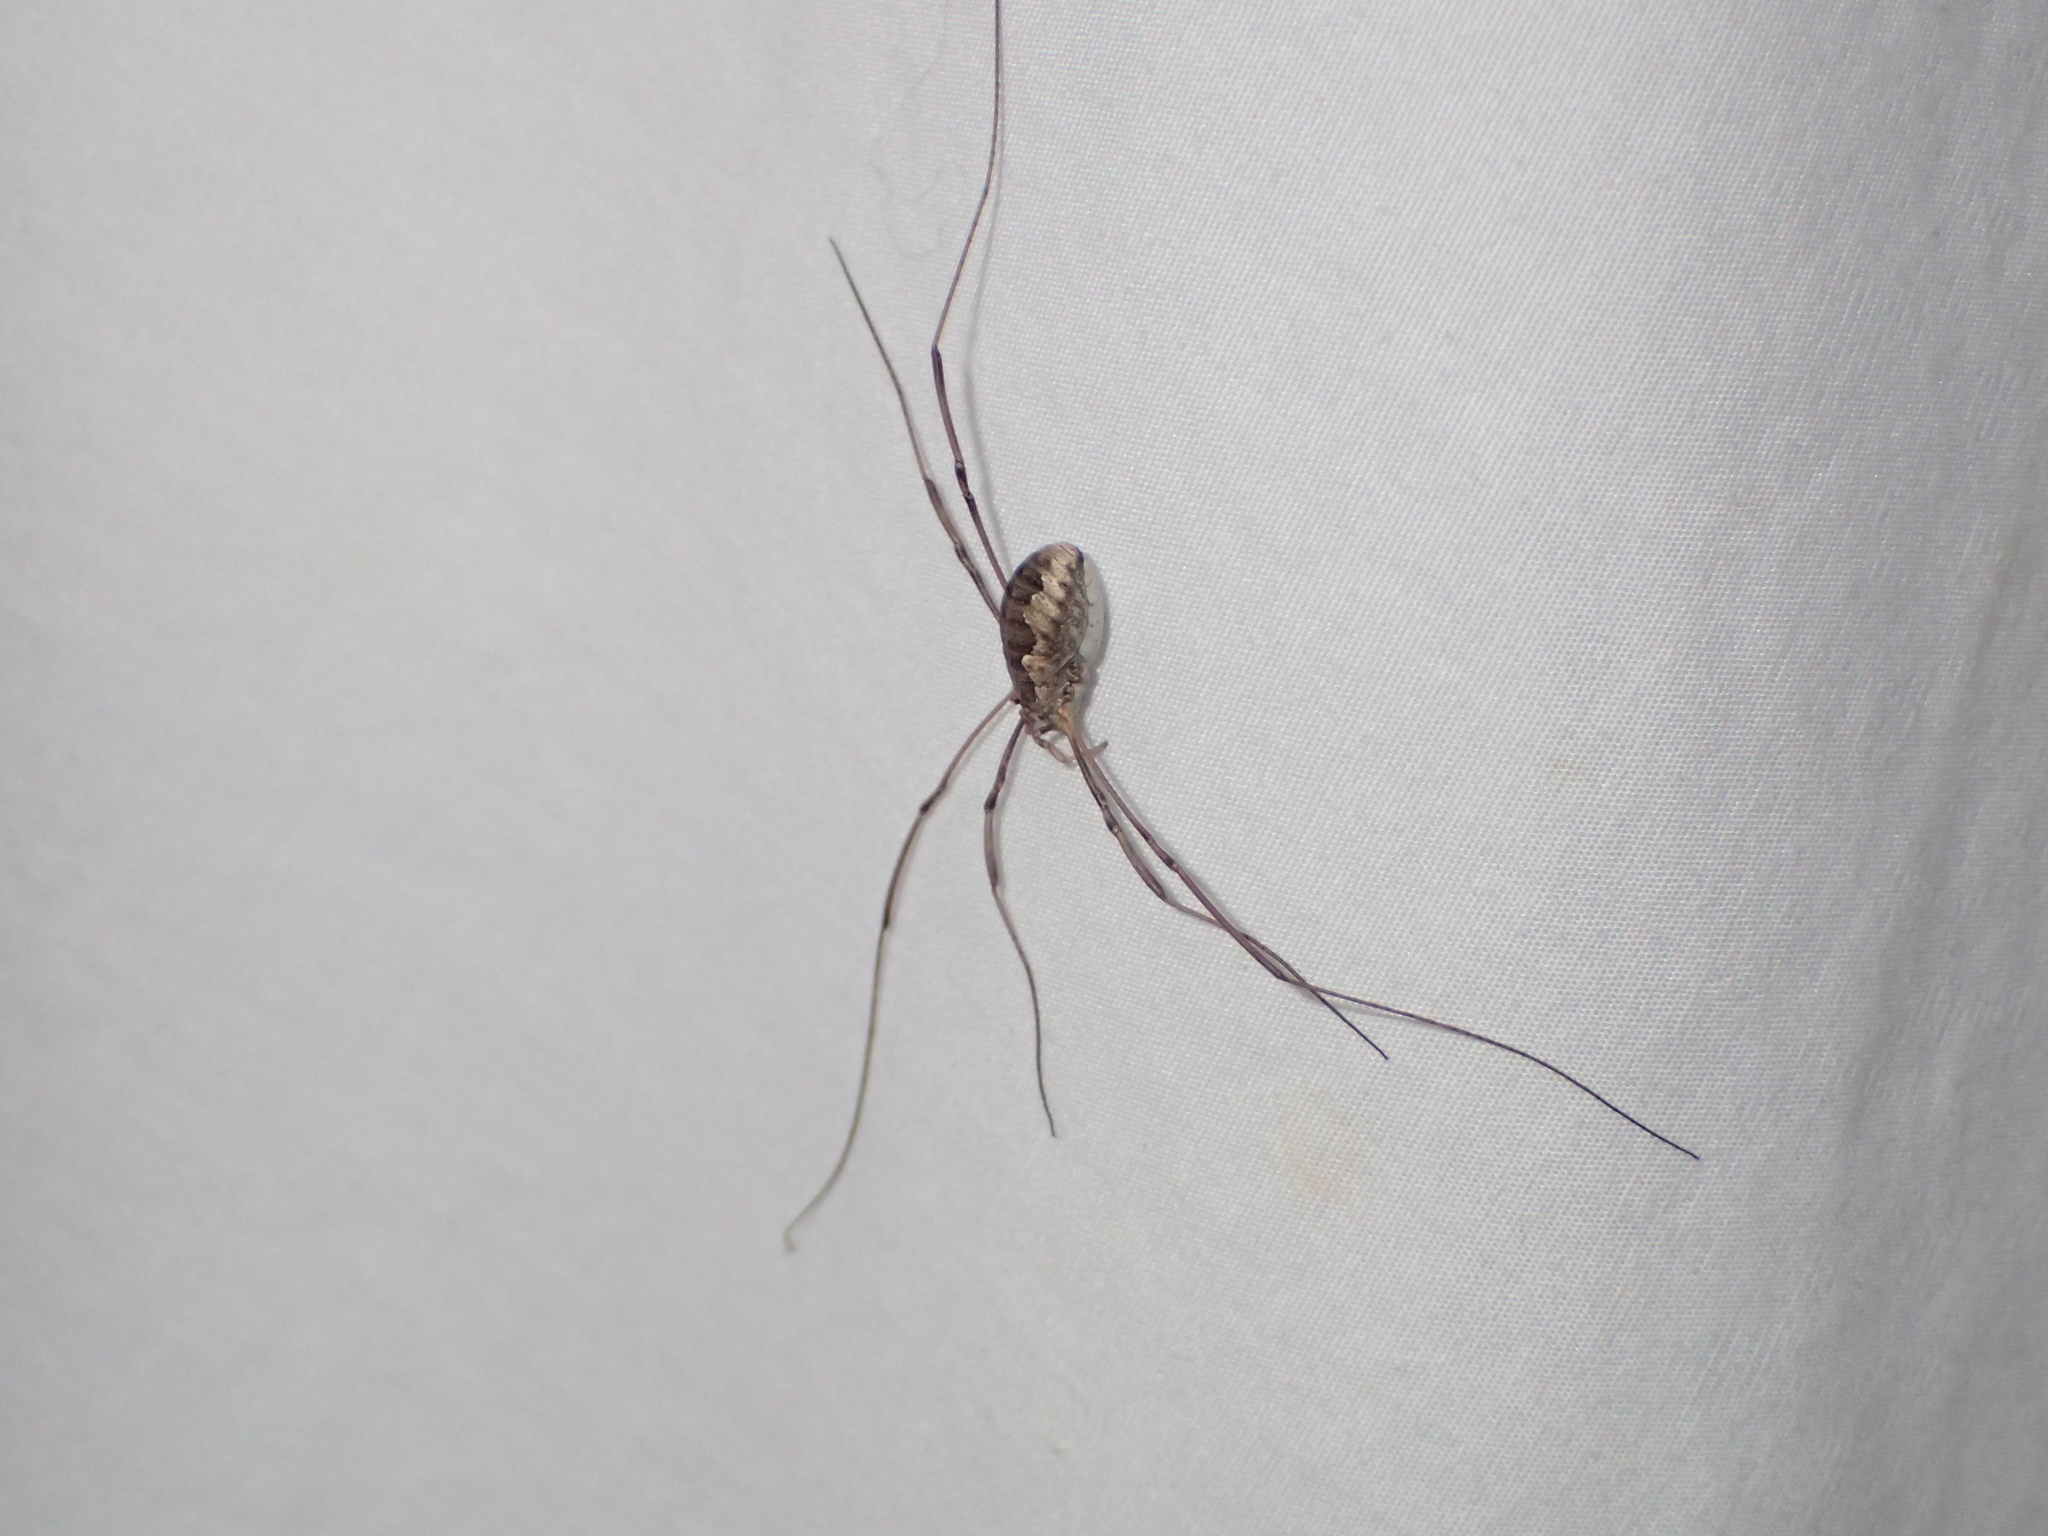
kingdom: Animalia
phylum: Arthropoda
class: Arachnida
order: Opiliones
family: Phalangiidae
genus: Phalangium
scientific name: Phalangium opilio
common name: Daddy longleg
